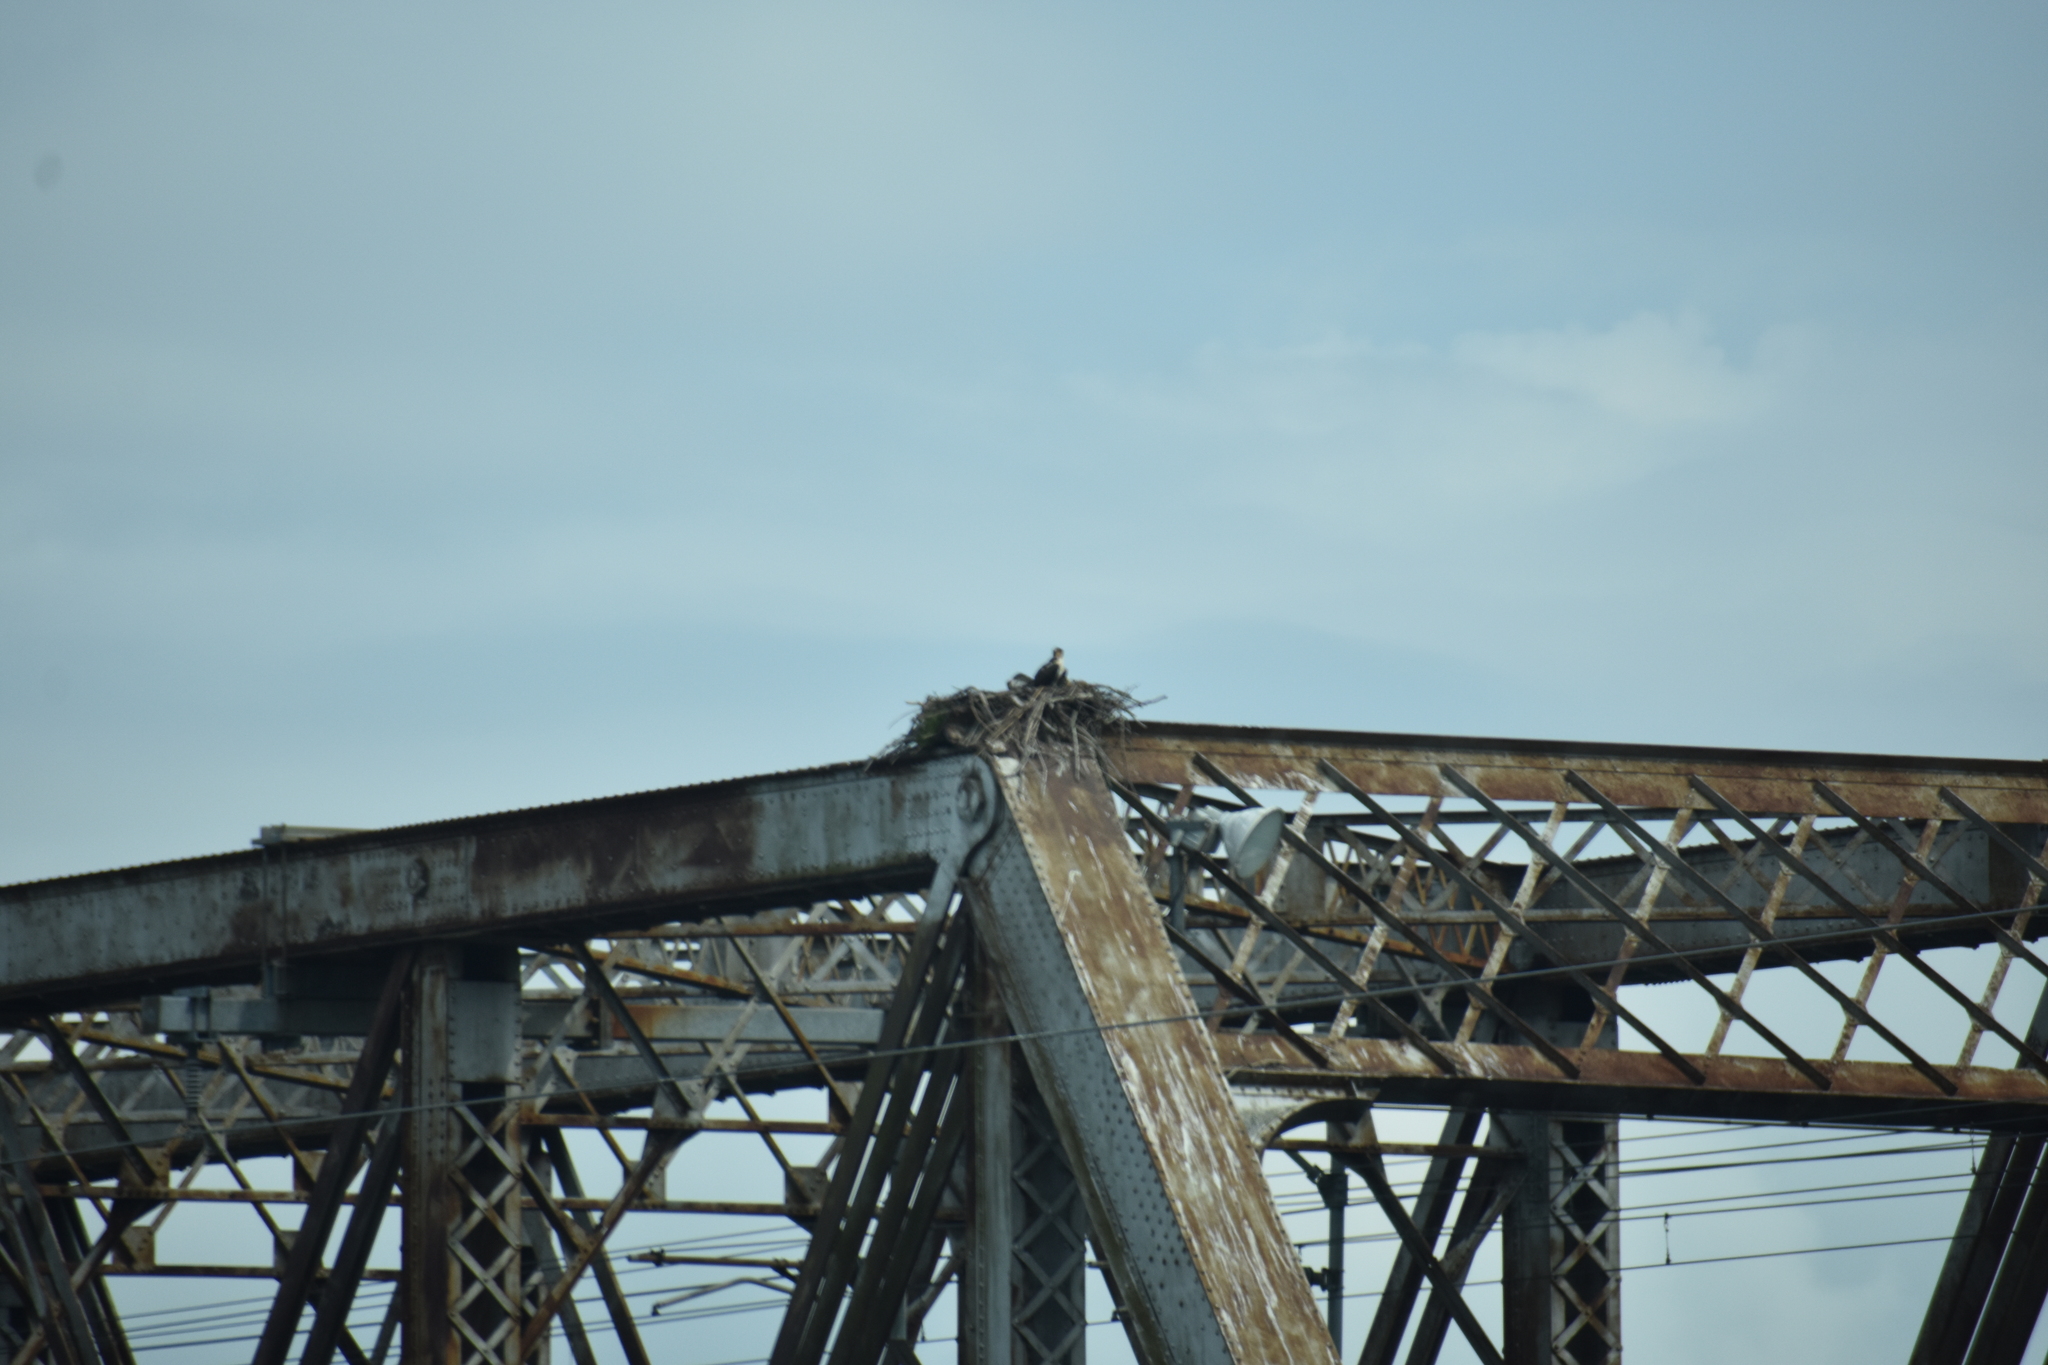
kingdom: Animalia
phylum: Chordata
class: Aves
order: Accipitriformes
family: Pandionidae
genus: Pandion
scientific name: Pandion haliaetus
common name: Osprey
